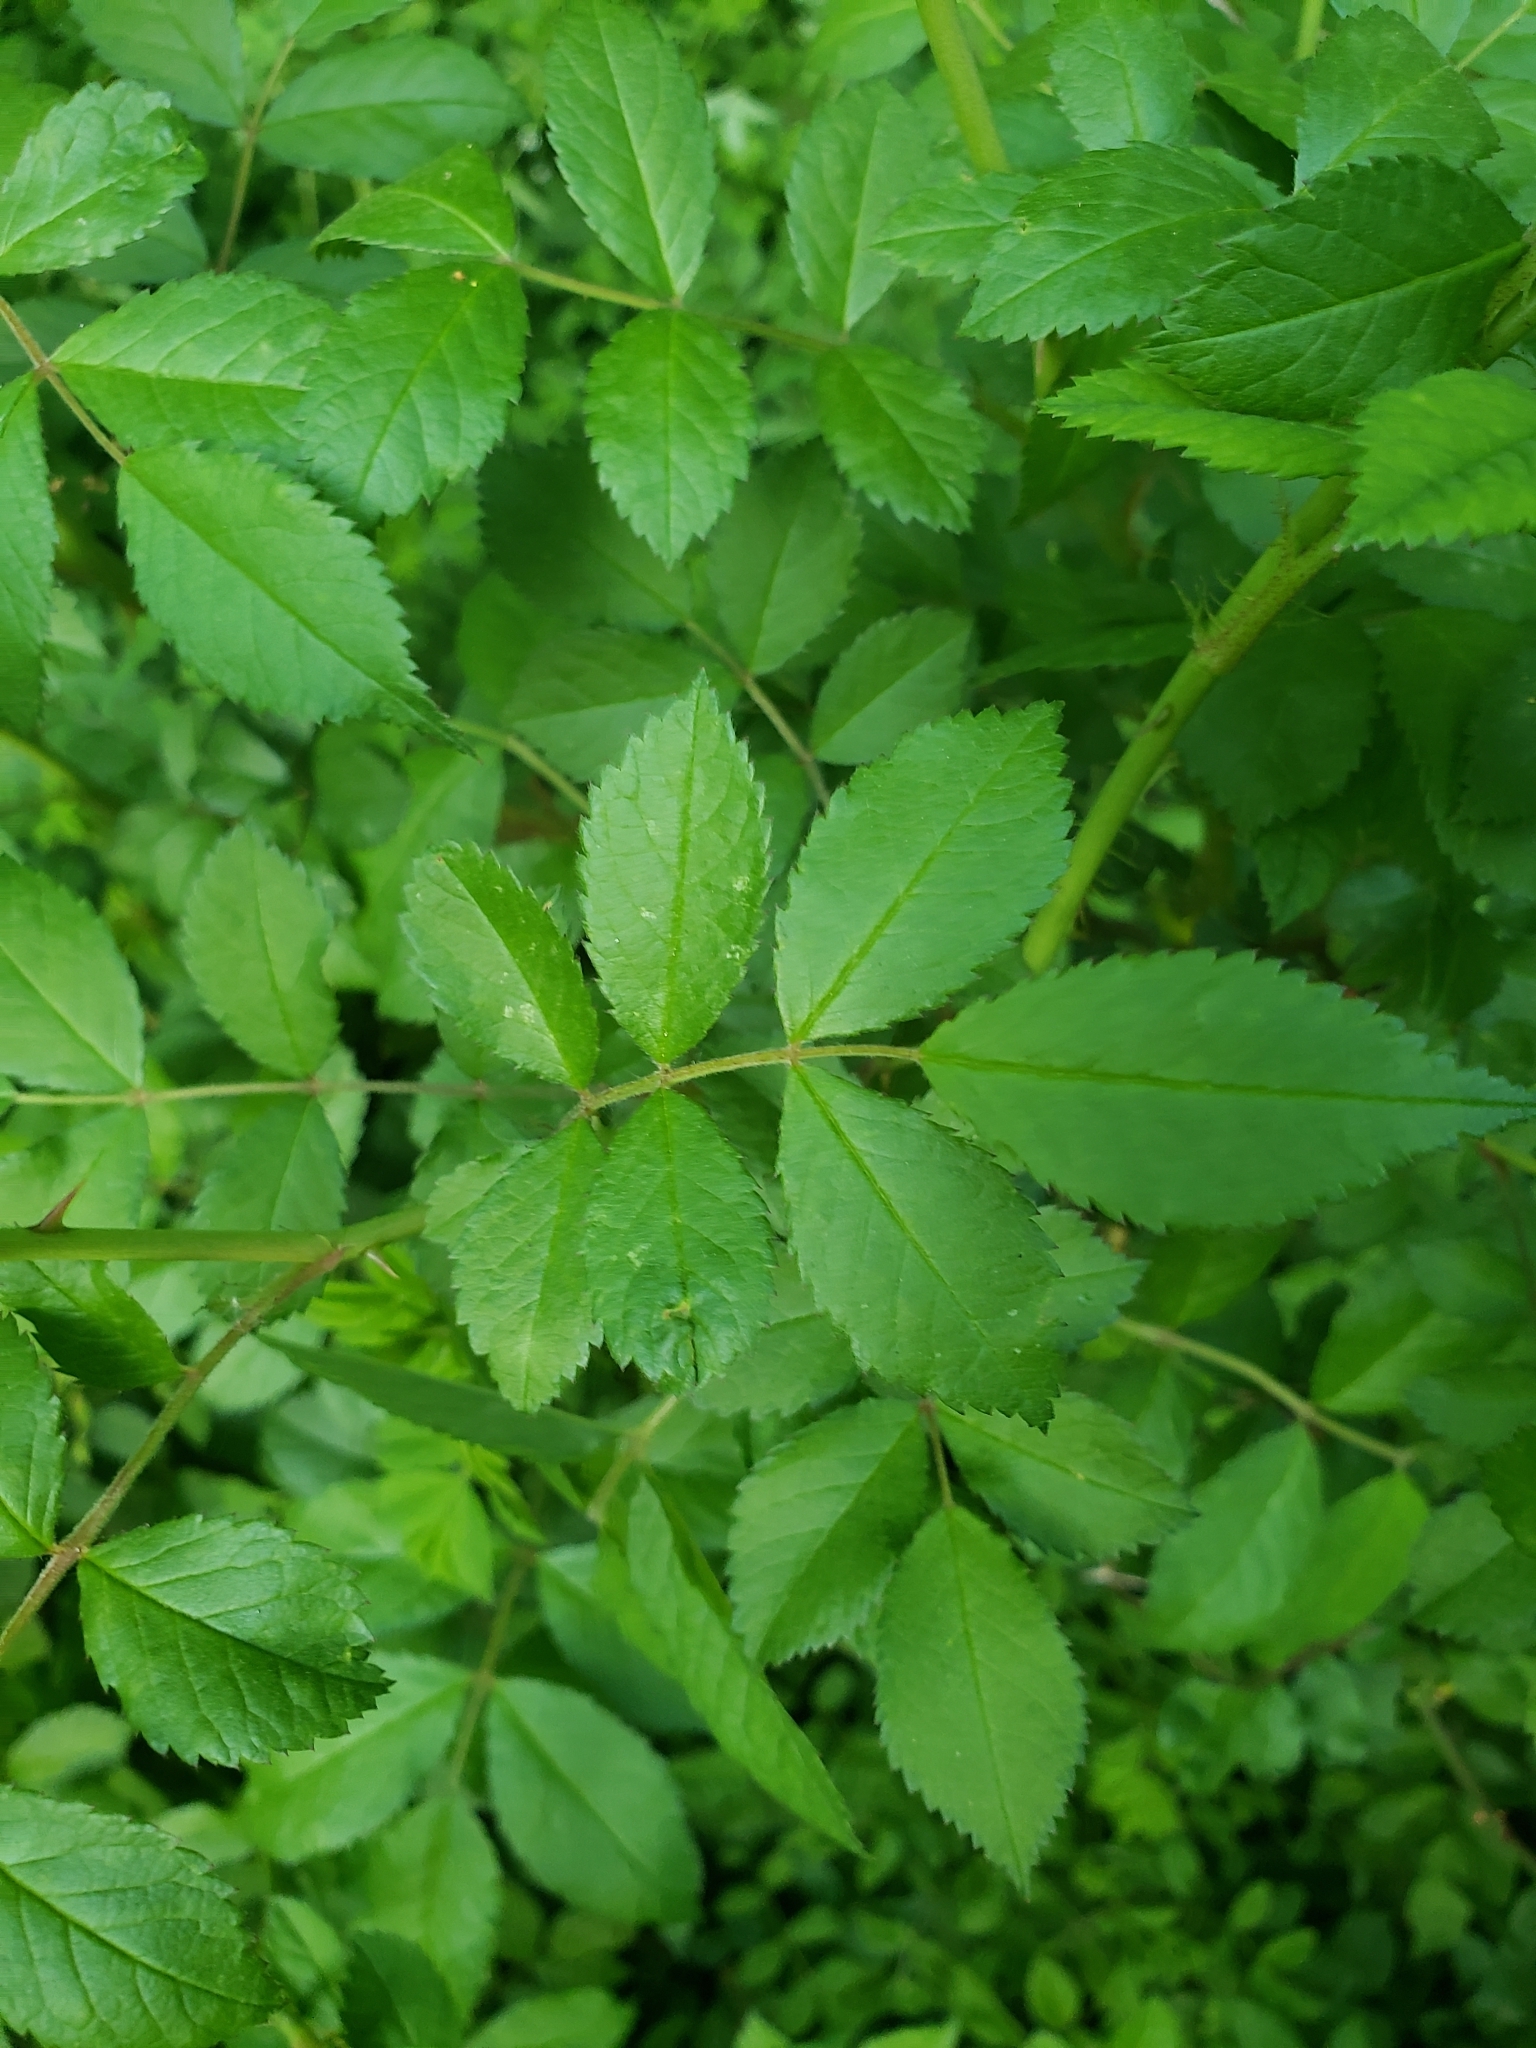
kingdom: Plantae
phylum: Tracheophyta
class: Magnoliopsida
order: Rosales
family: Rosaceae
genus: Rosa
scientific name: Rosa multiflora
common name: Multiflora rose
